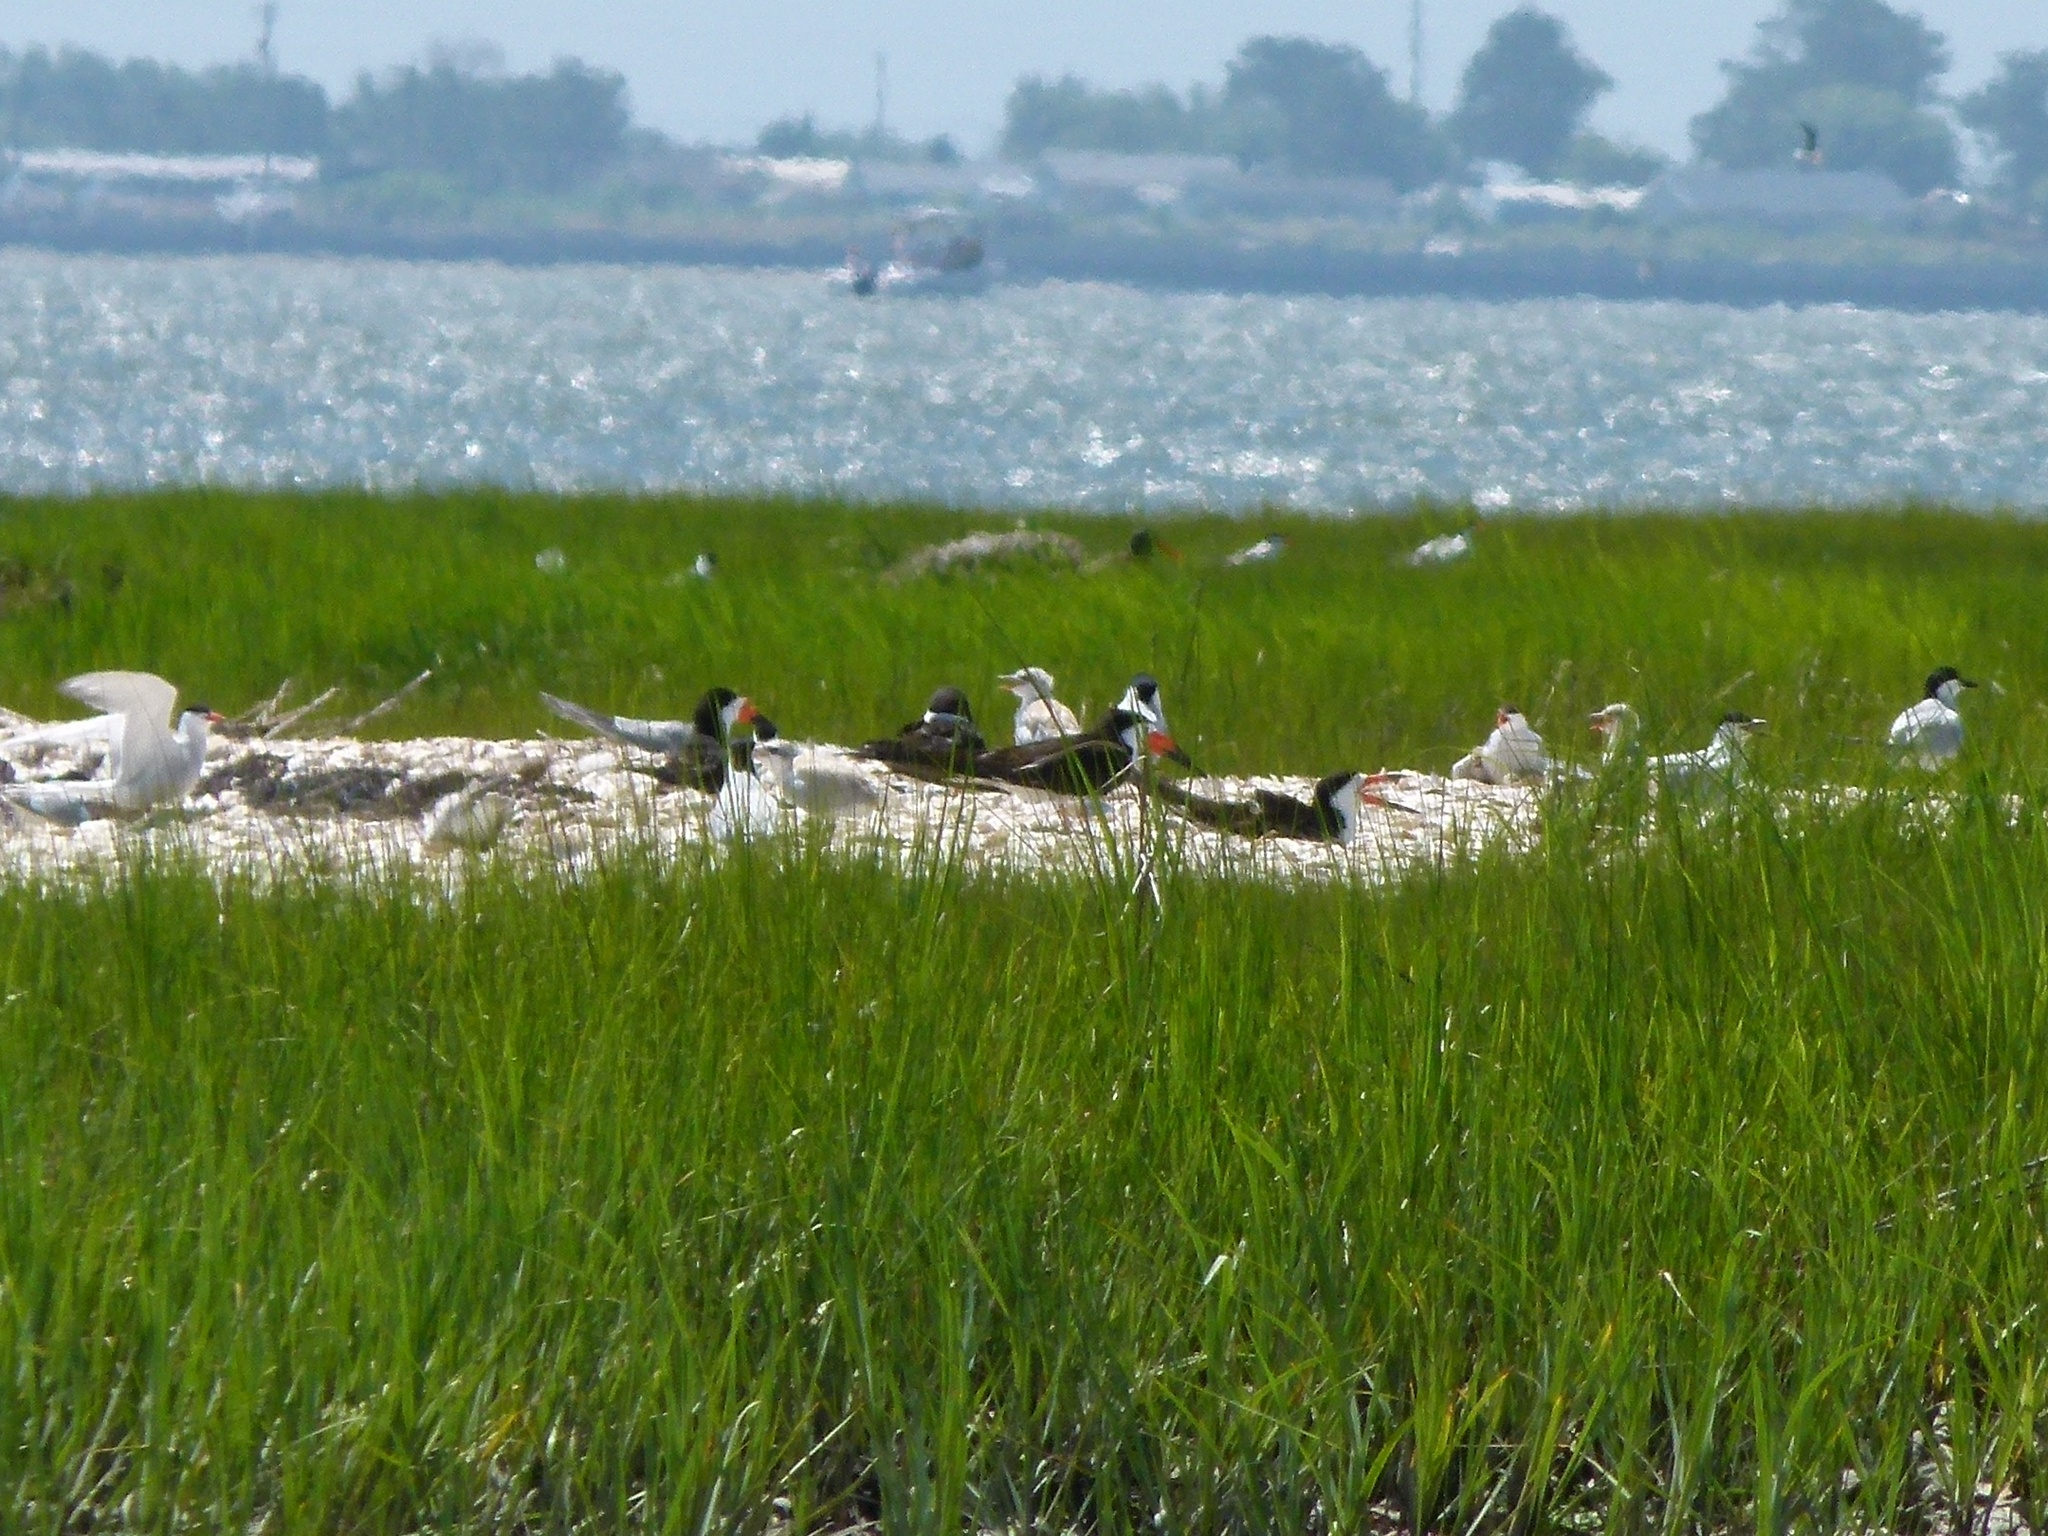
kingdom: Animalia
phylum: Chordata
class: Aves
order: Charadriiformes
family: Laridae
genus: Rynchops
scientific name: Rynchops niger
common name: Black skimmer
